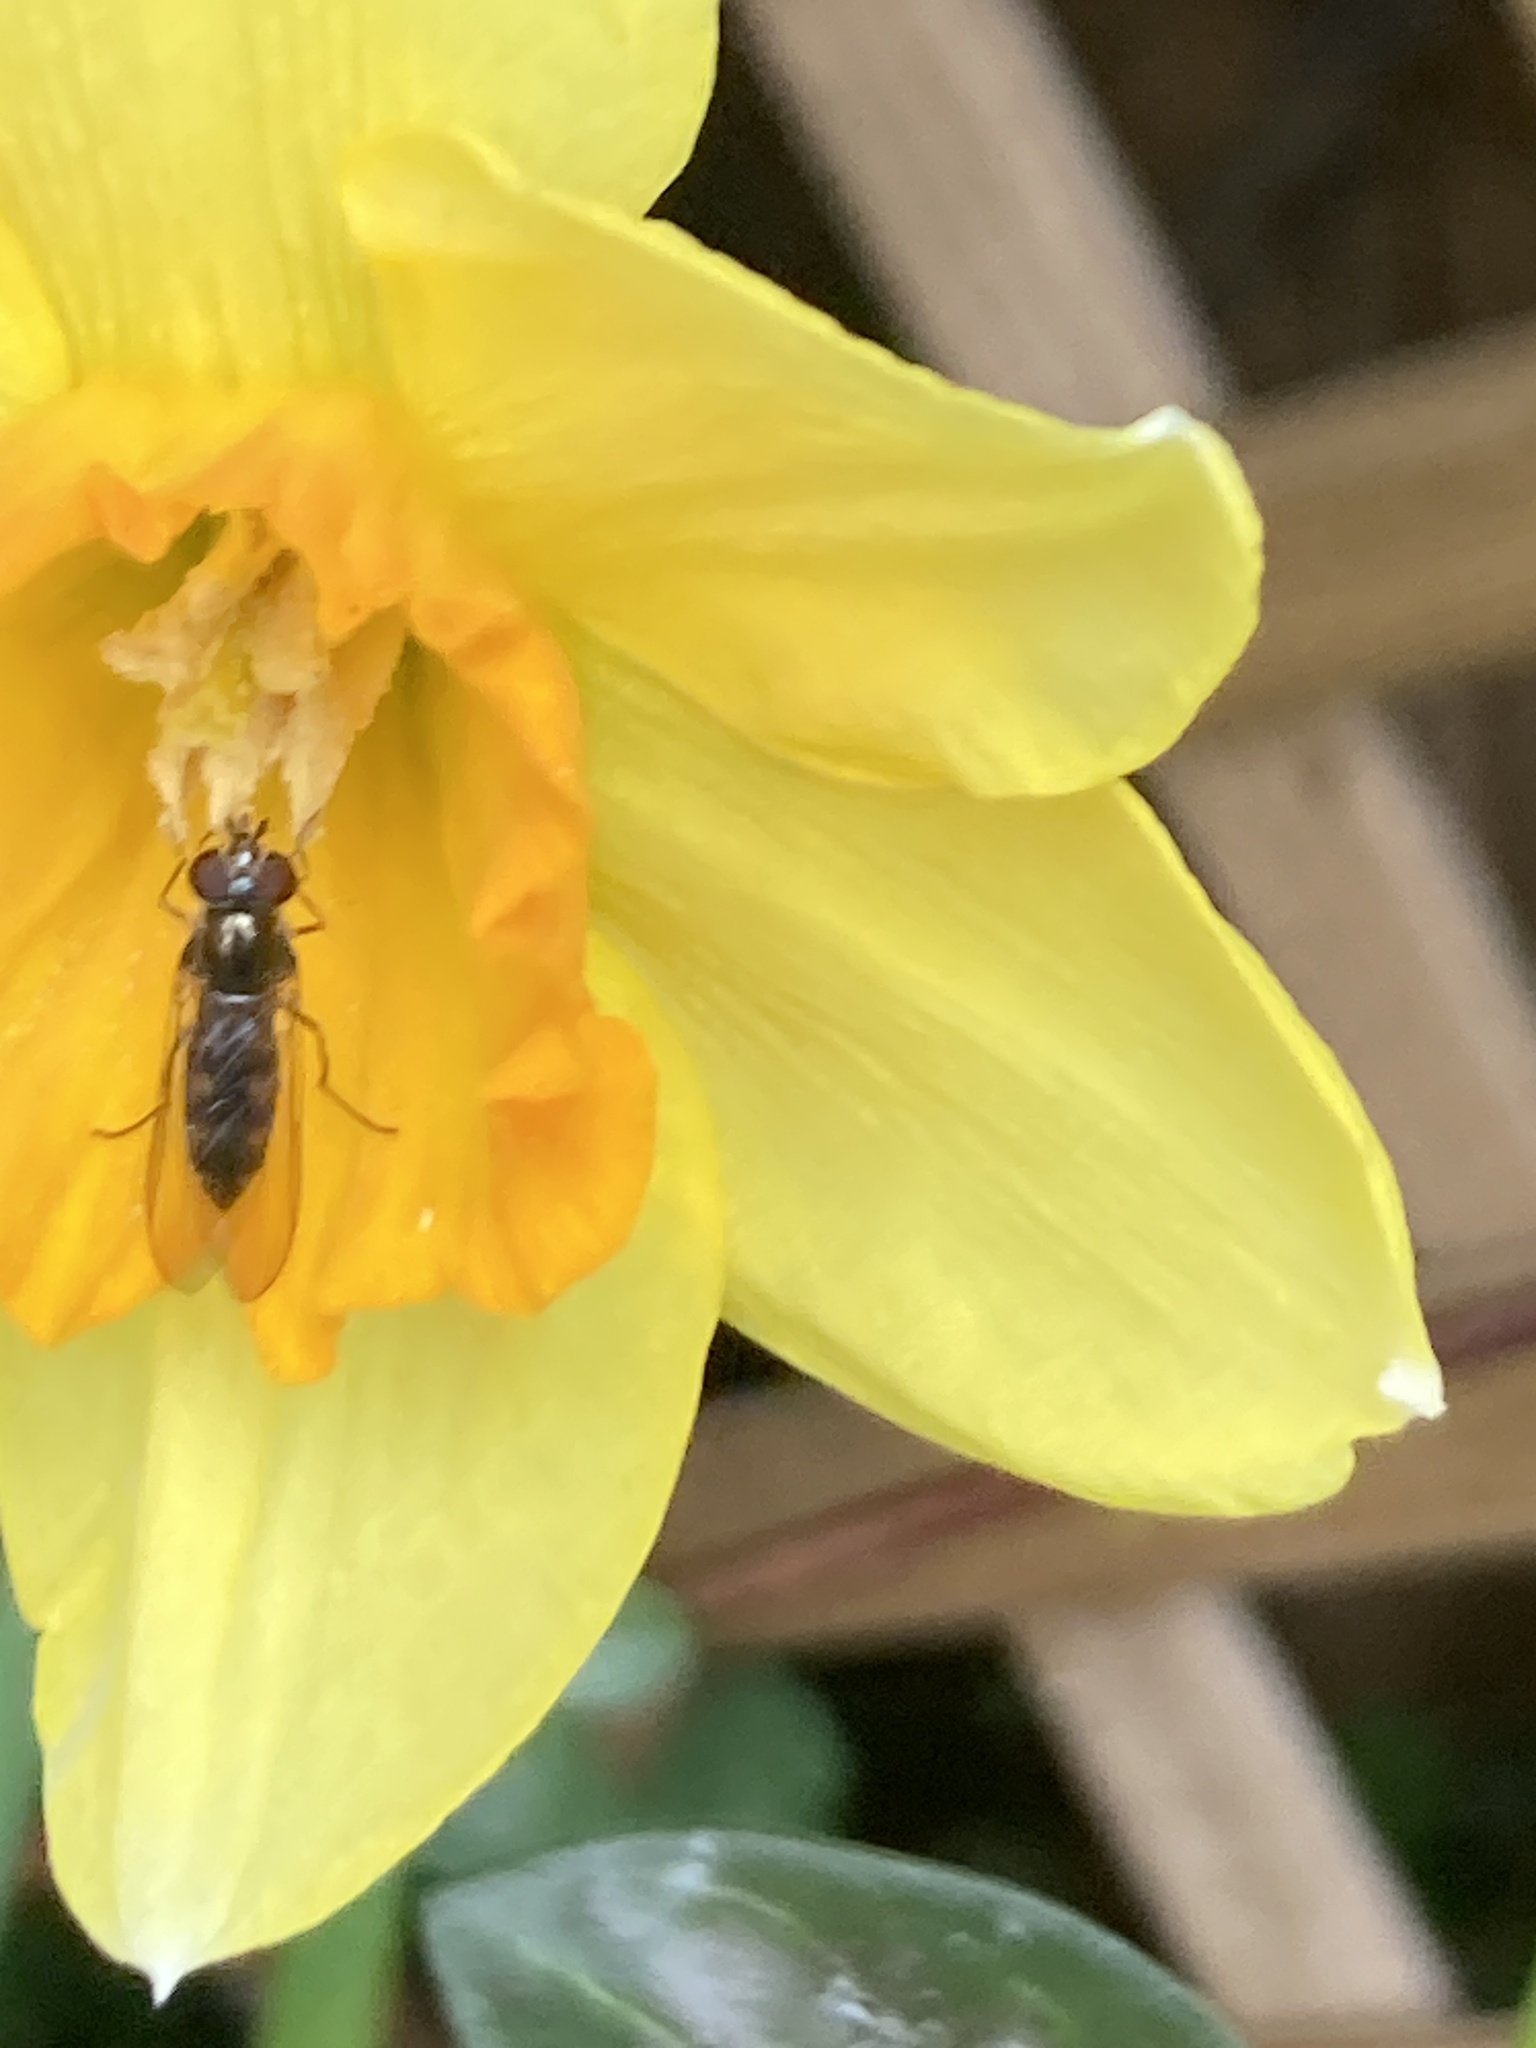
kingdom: Animalia
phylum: Arthropoda
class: Insecta
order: Diptera
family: Syrphidae
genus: Meliscaeva
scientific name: Meliscaeva auricollis
